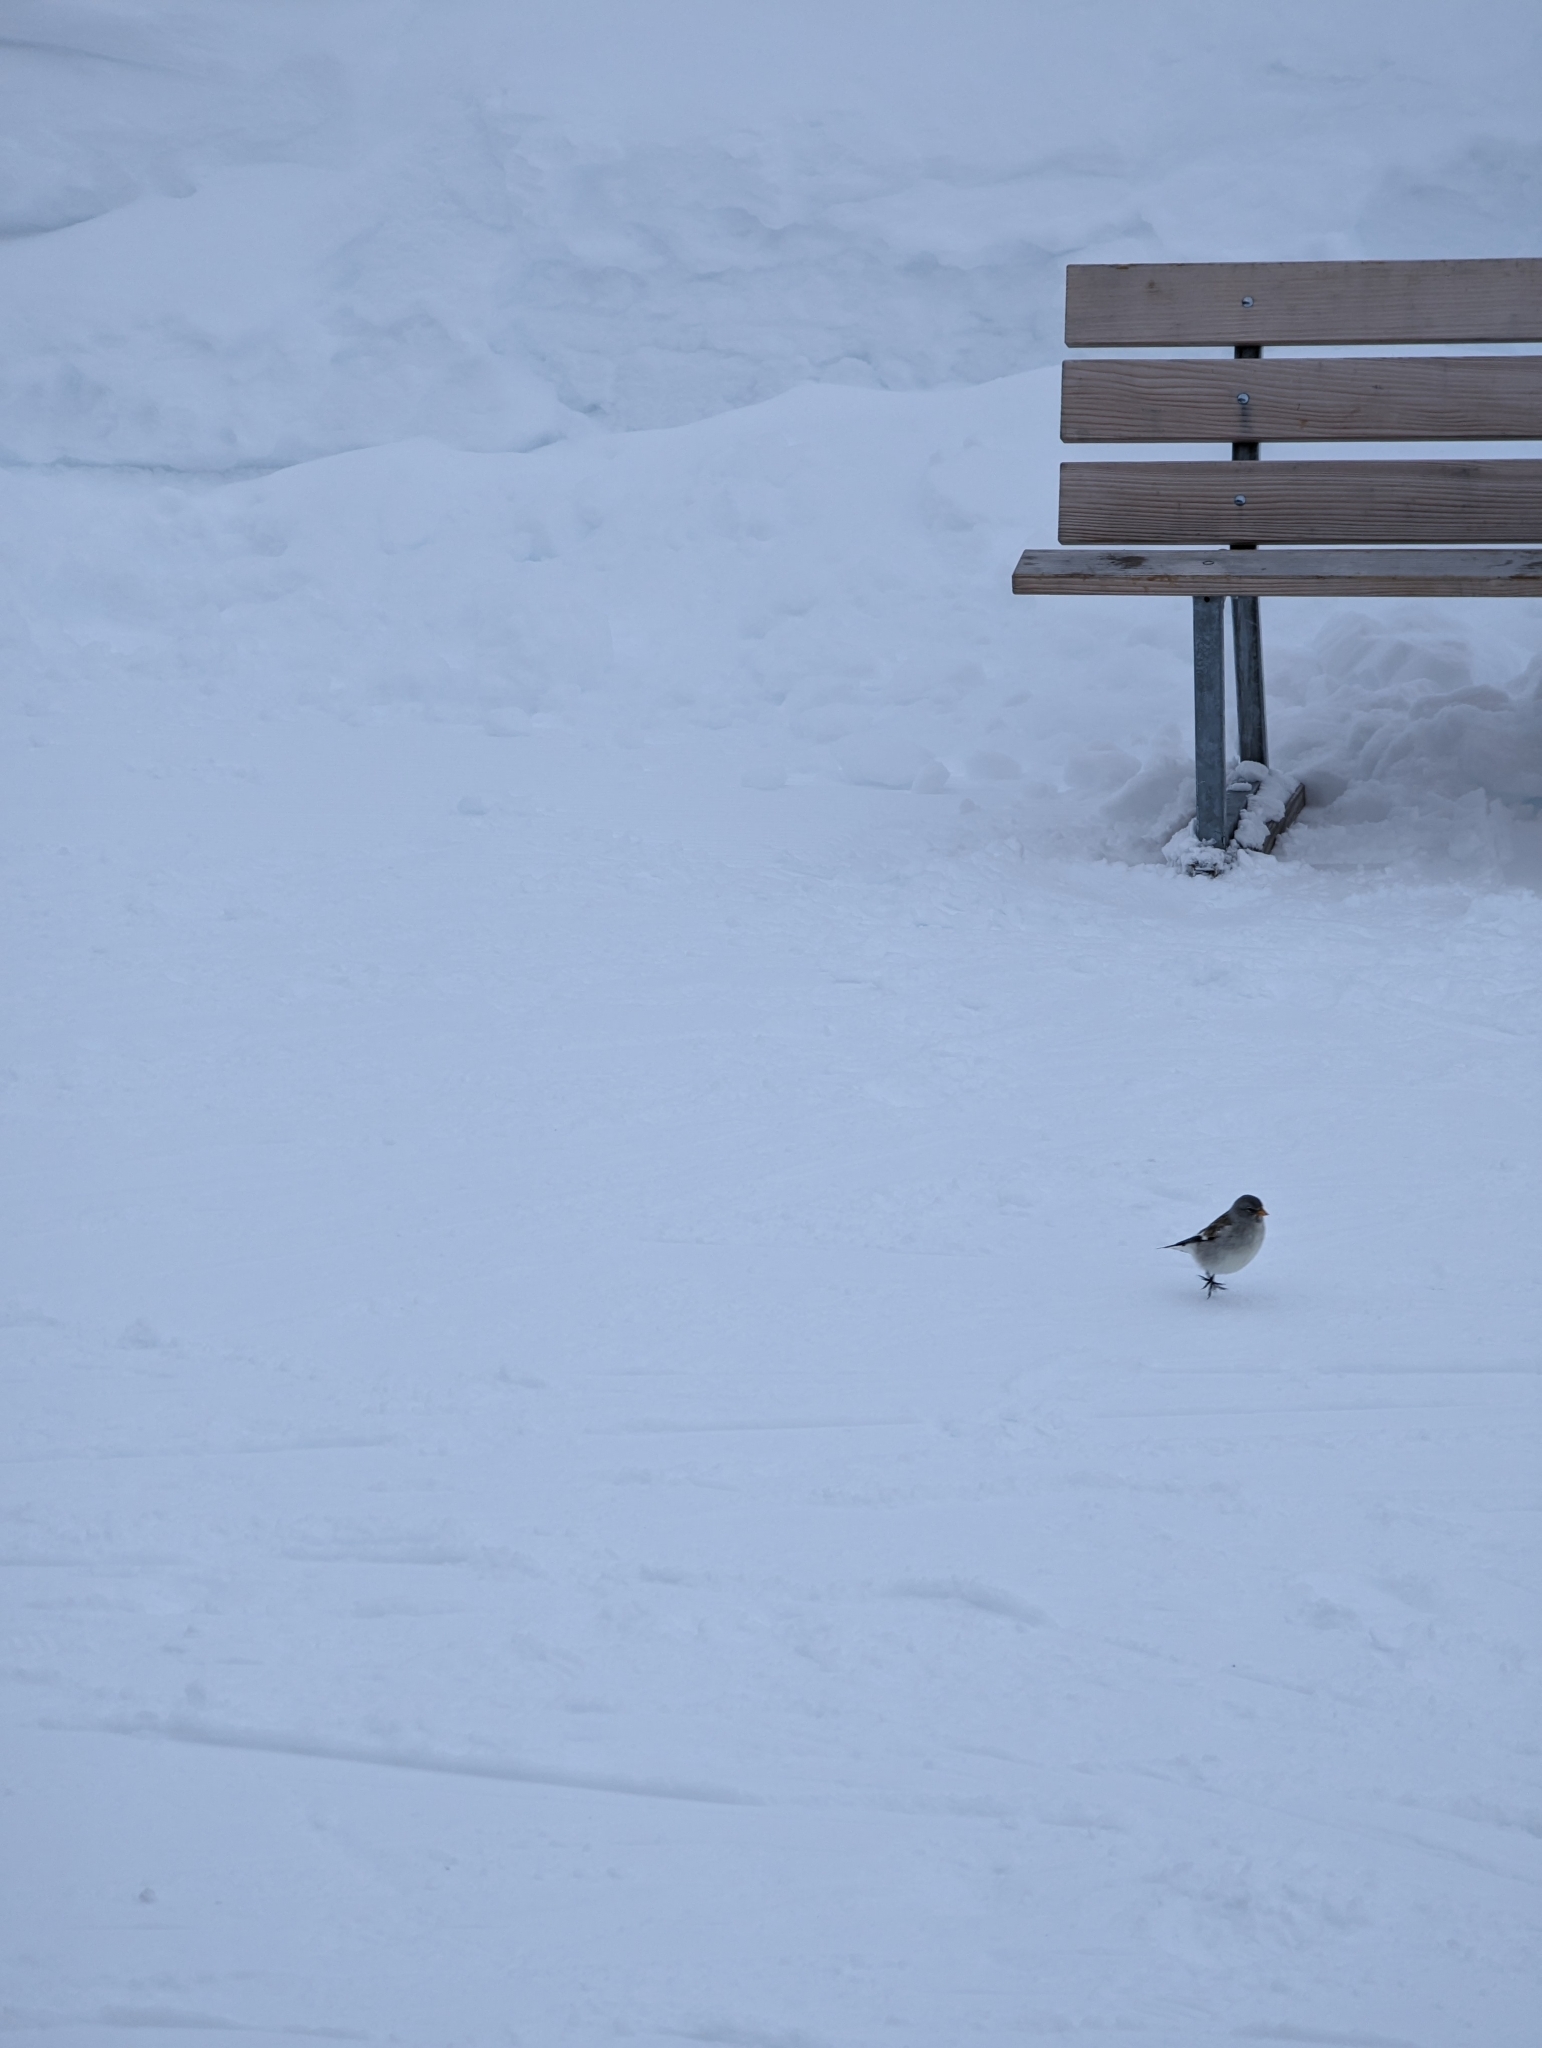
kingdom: Animalia
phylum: Chordata
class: Aves
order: Passeriformes
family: Passeridae
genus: Montifringilla
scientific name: Montifringilla nivalis
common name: White-winged snowfinch
